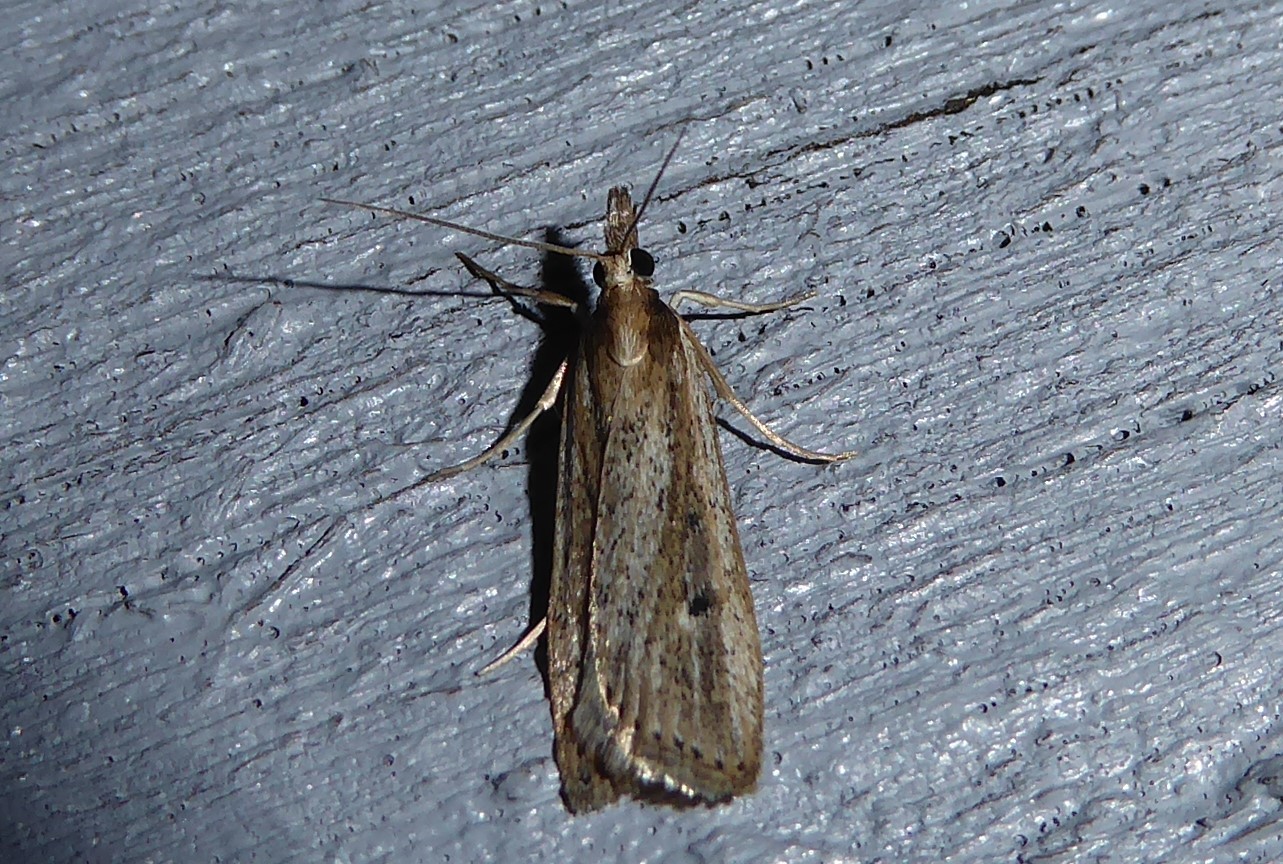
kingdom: Animalia
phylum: Arthropoda
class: Insecta
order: Lepidoptera
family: Crambidae
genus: Eudonia
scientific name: Eudonia sabulosella
